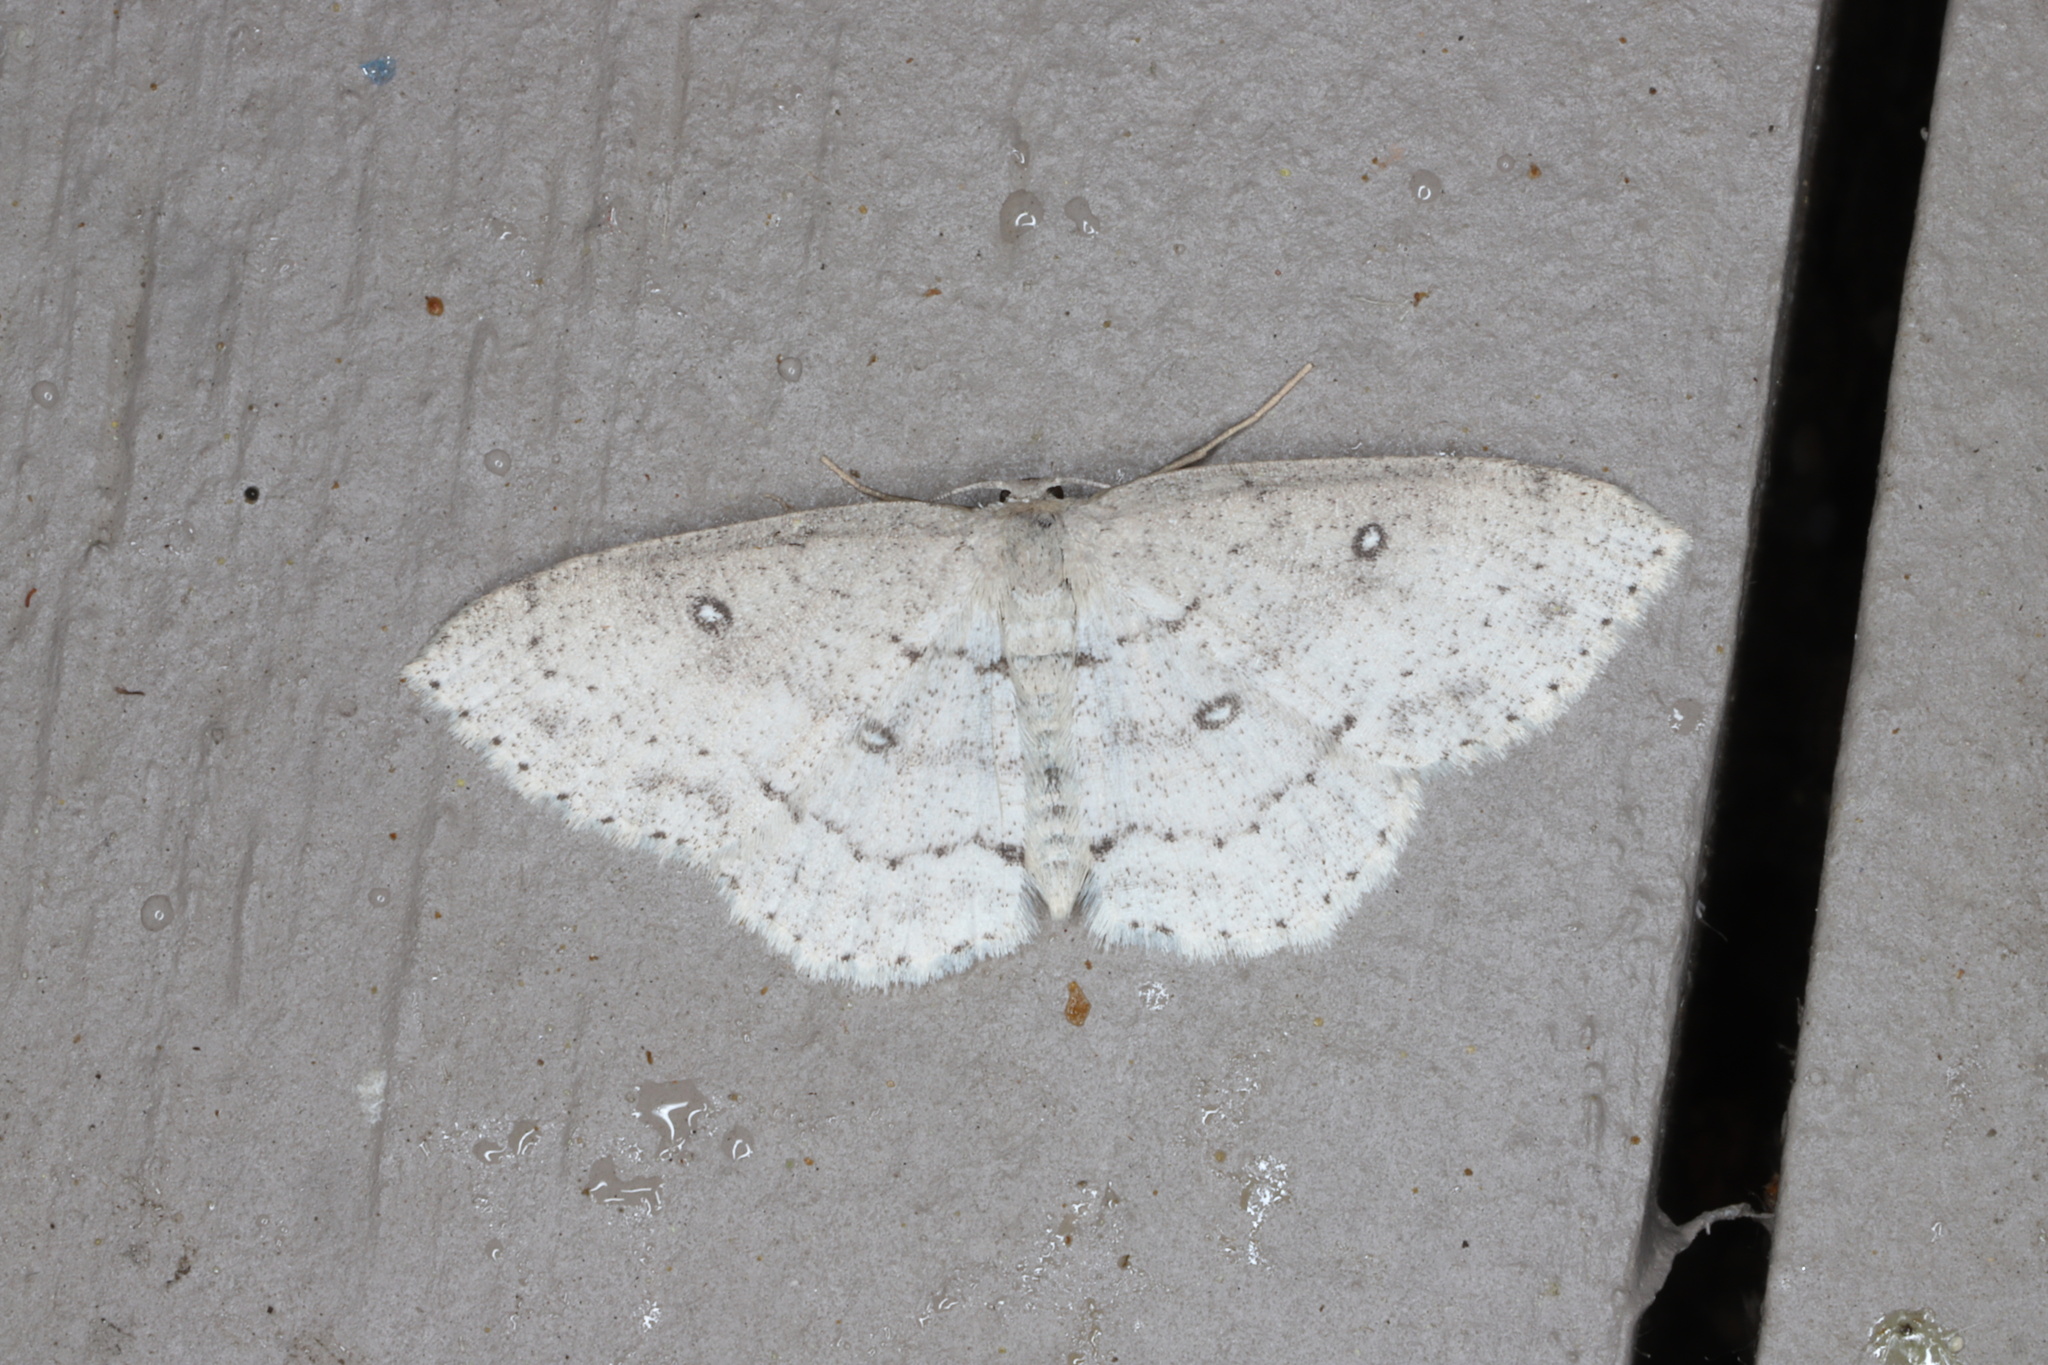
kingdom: Animalia
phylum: Arthropoda
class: Insecta
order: Lepidoptera
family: Geometridae
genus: Cyclophora
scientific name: Cyclophora pendulinaria
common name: Sweet fern geometer
